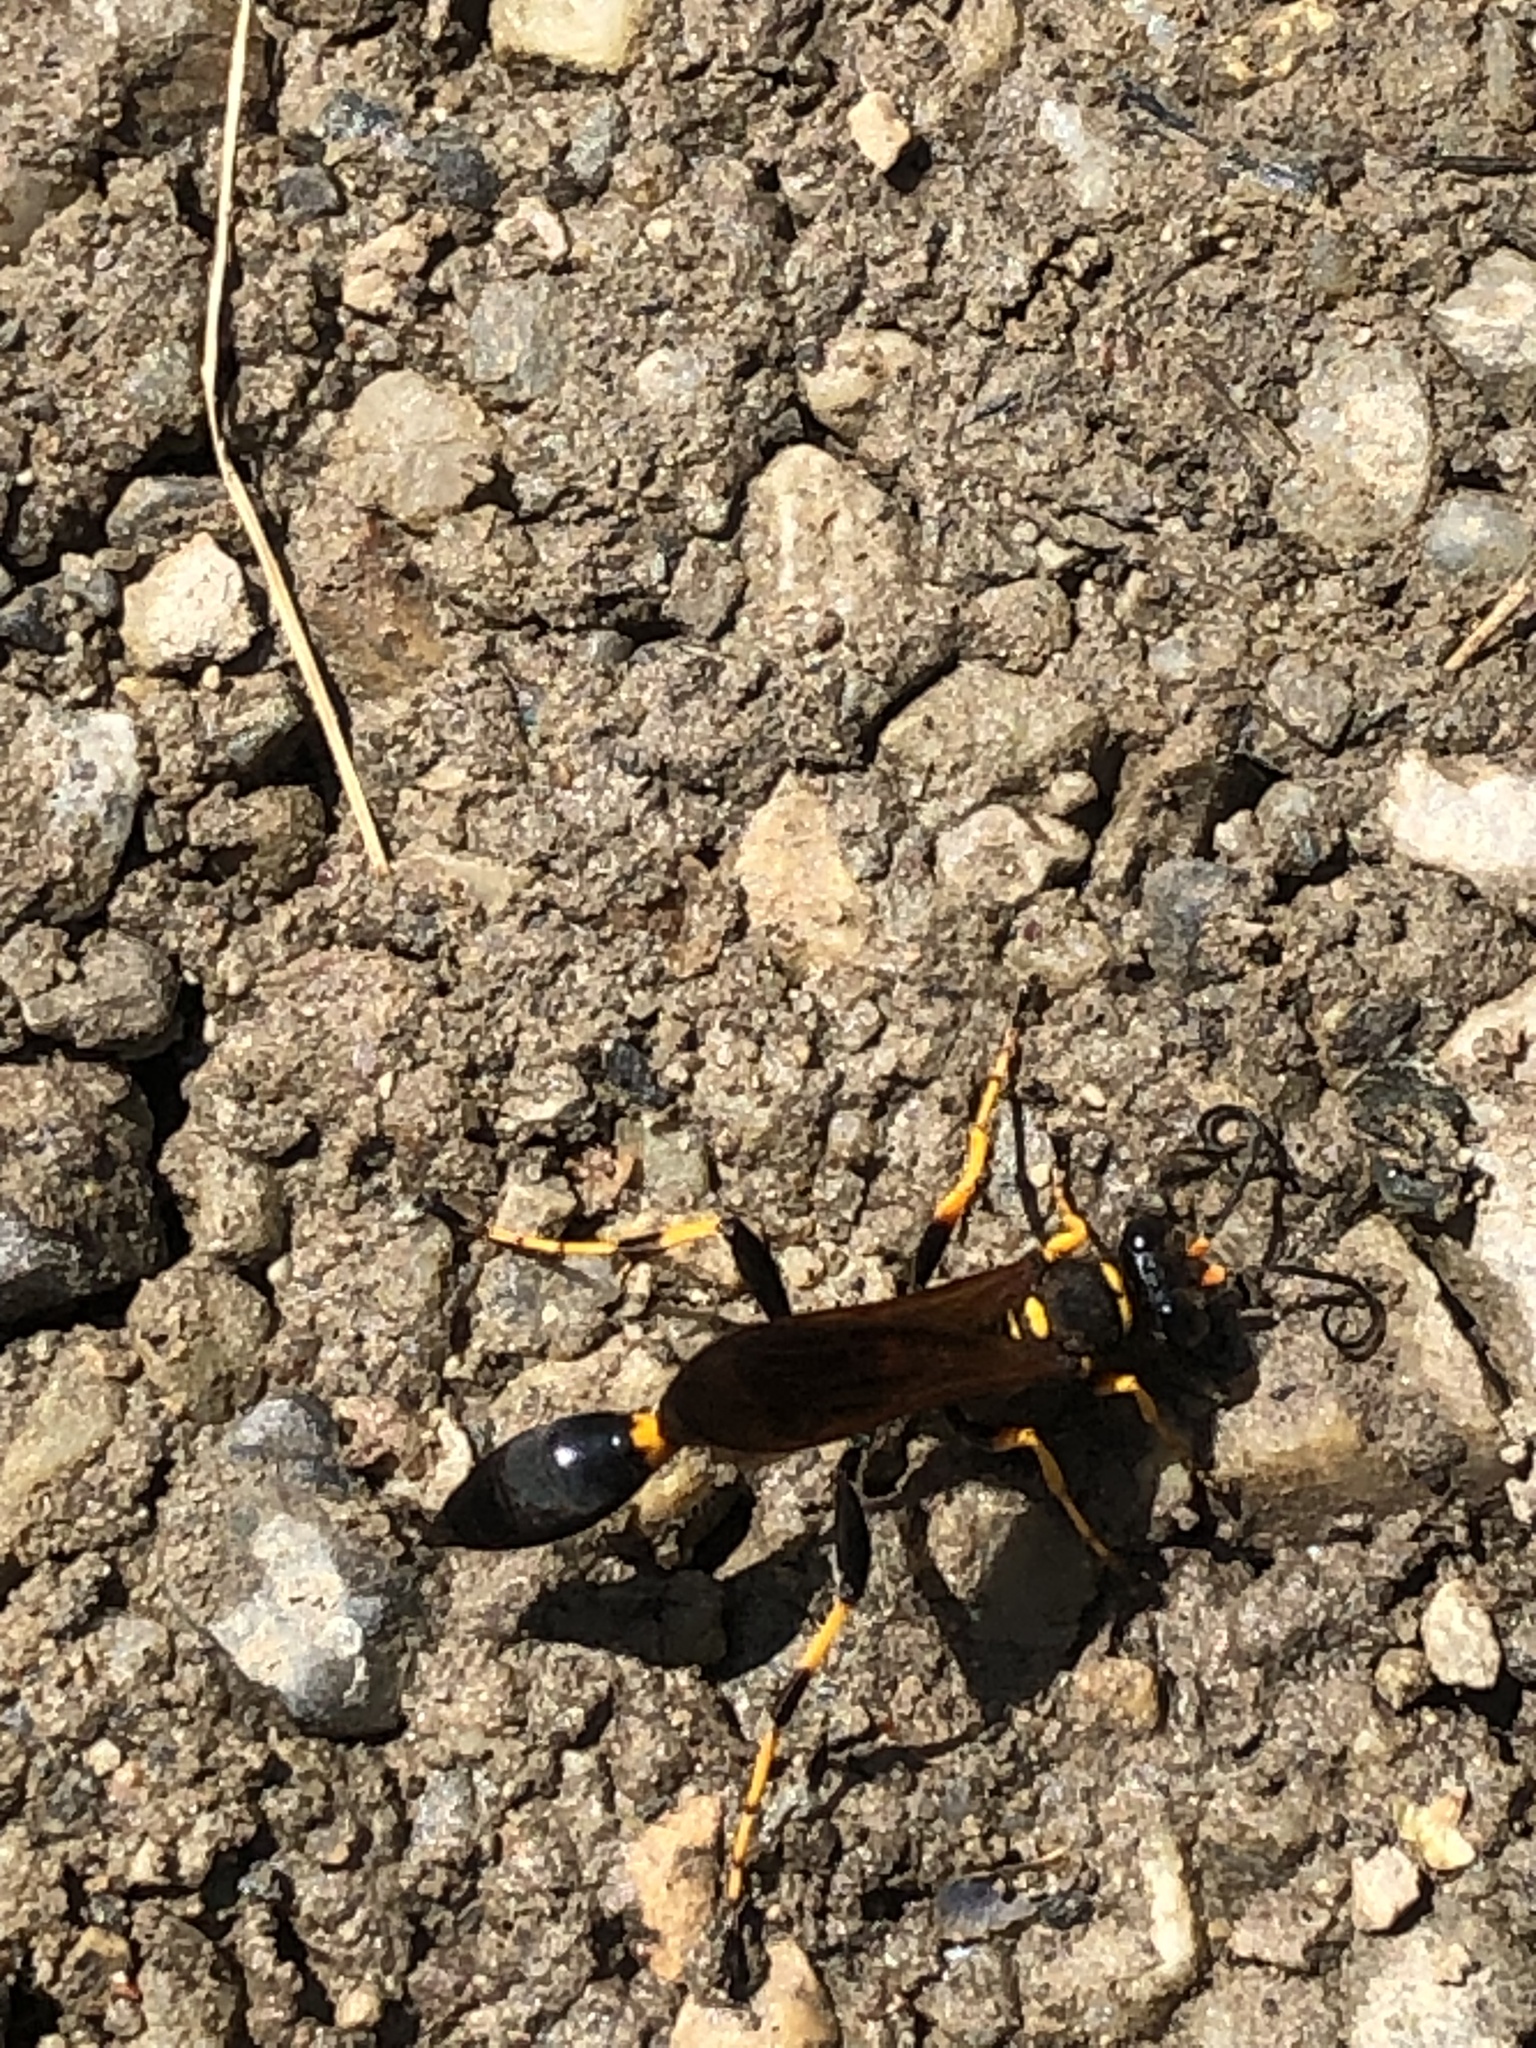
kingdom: Animalia
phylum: Arthropoda
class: Insecta
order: Hymenoptera
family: Sphecidae
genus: Sceliphron
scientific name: Sceliphron caementarium
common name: Mud dauber
